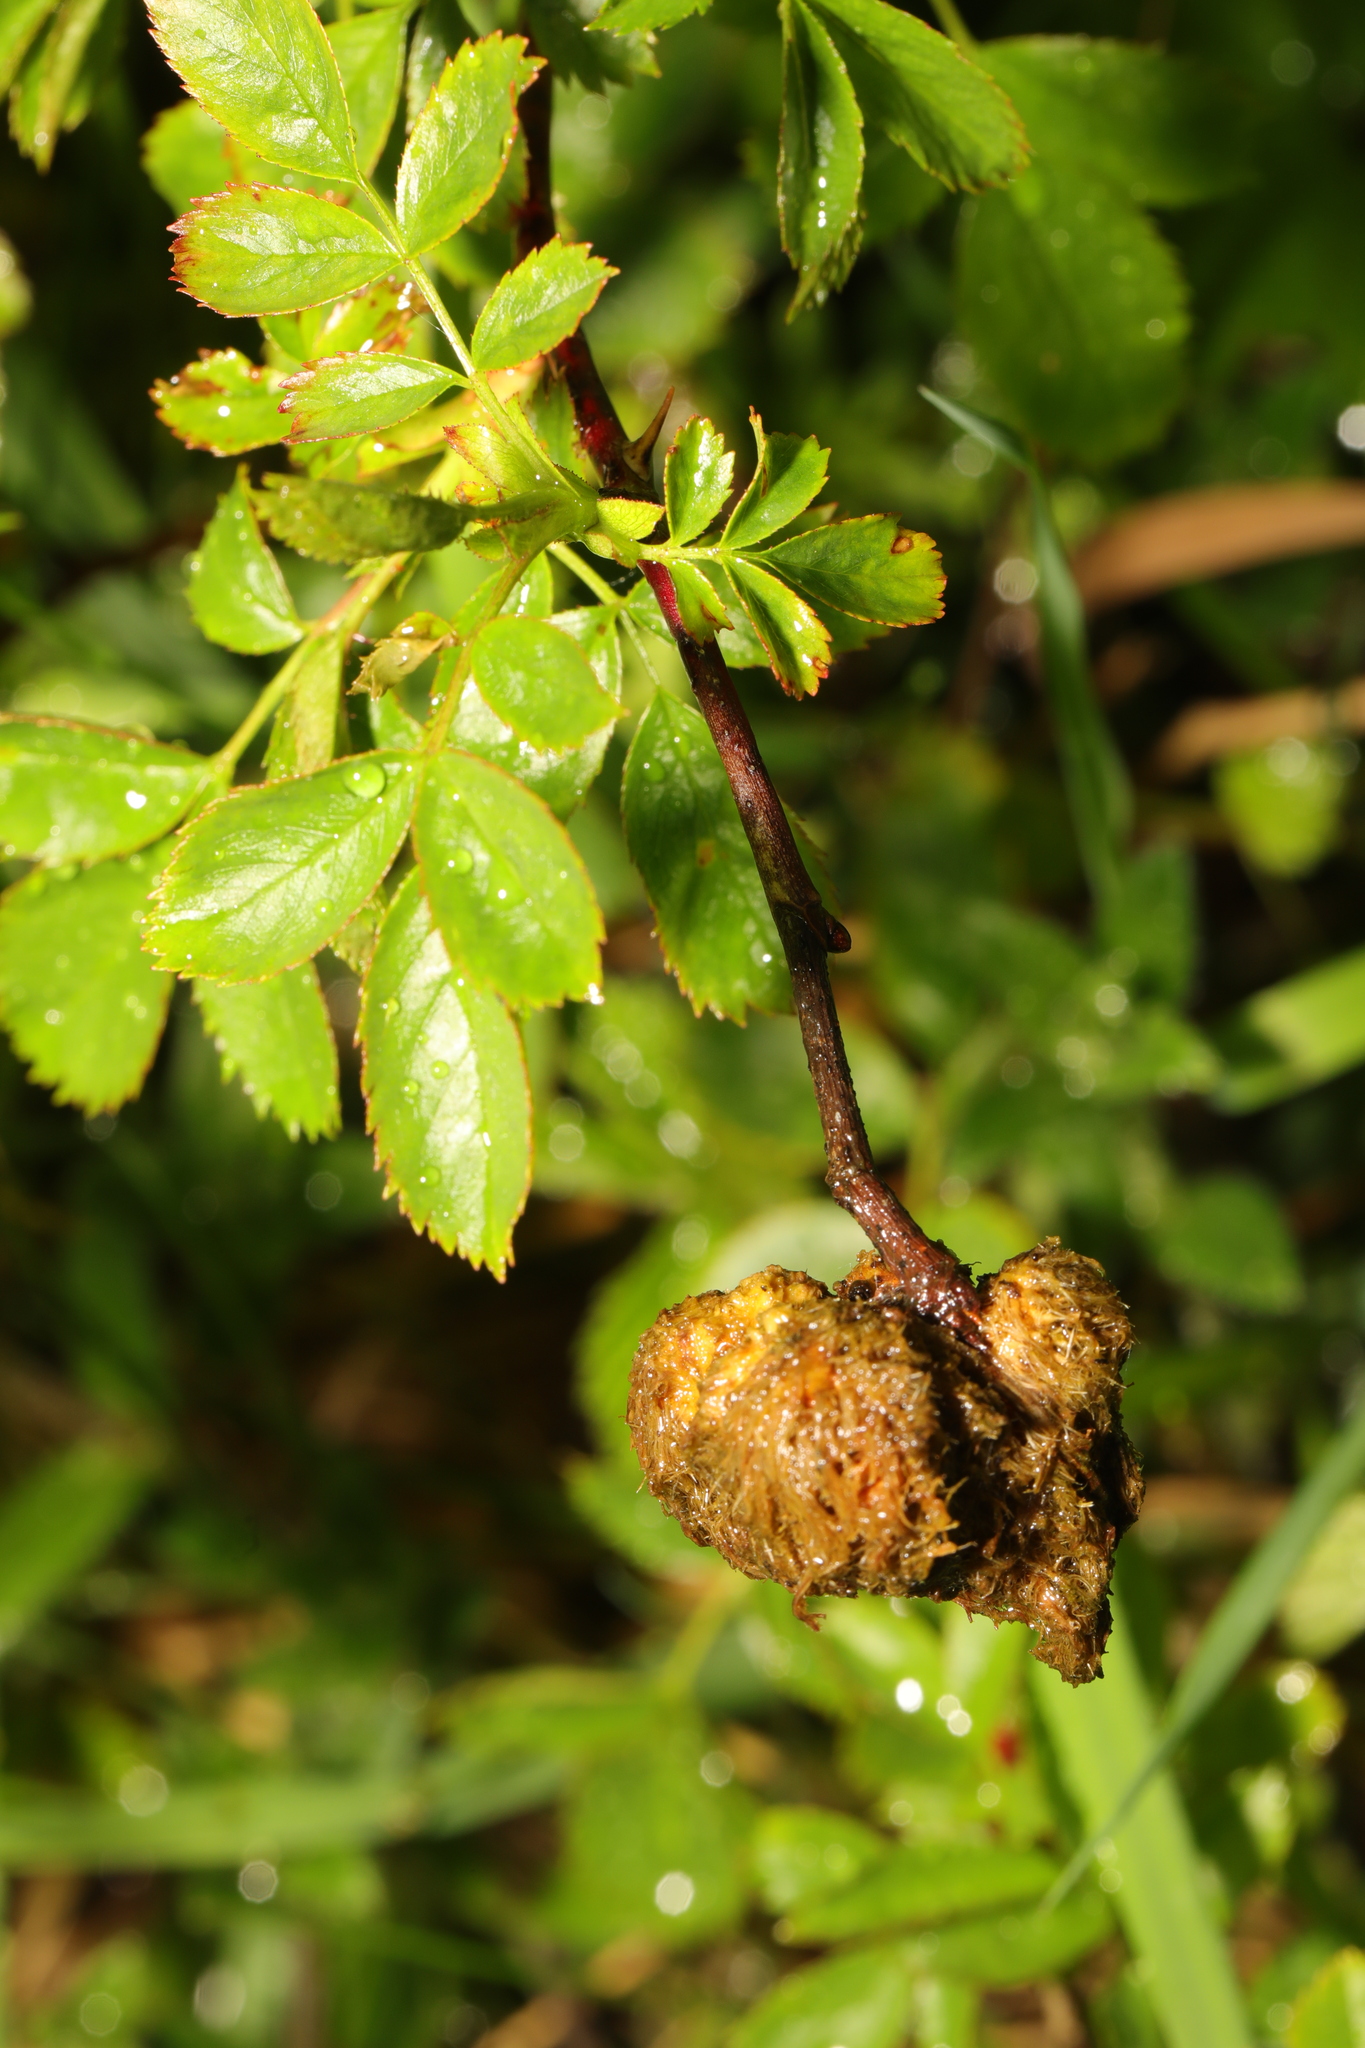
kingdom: Animalia
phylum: Arthropoda
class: Insecta
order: Hymenoptera
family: Cynipidae
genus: Diplolepis
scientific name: Diplolepis rosae
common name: Bedeguar gall
